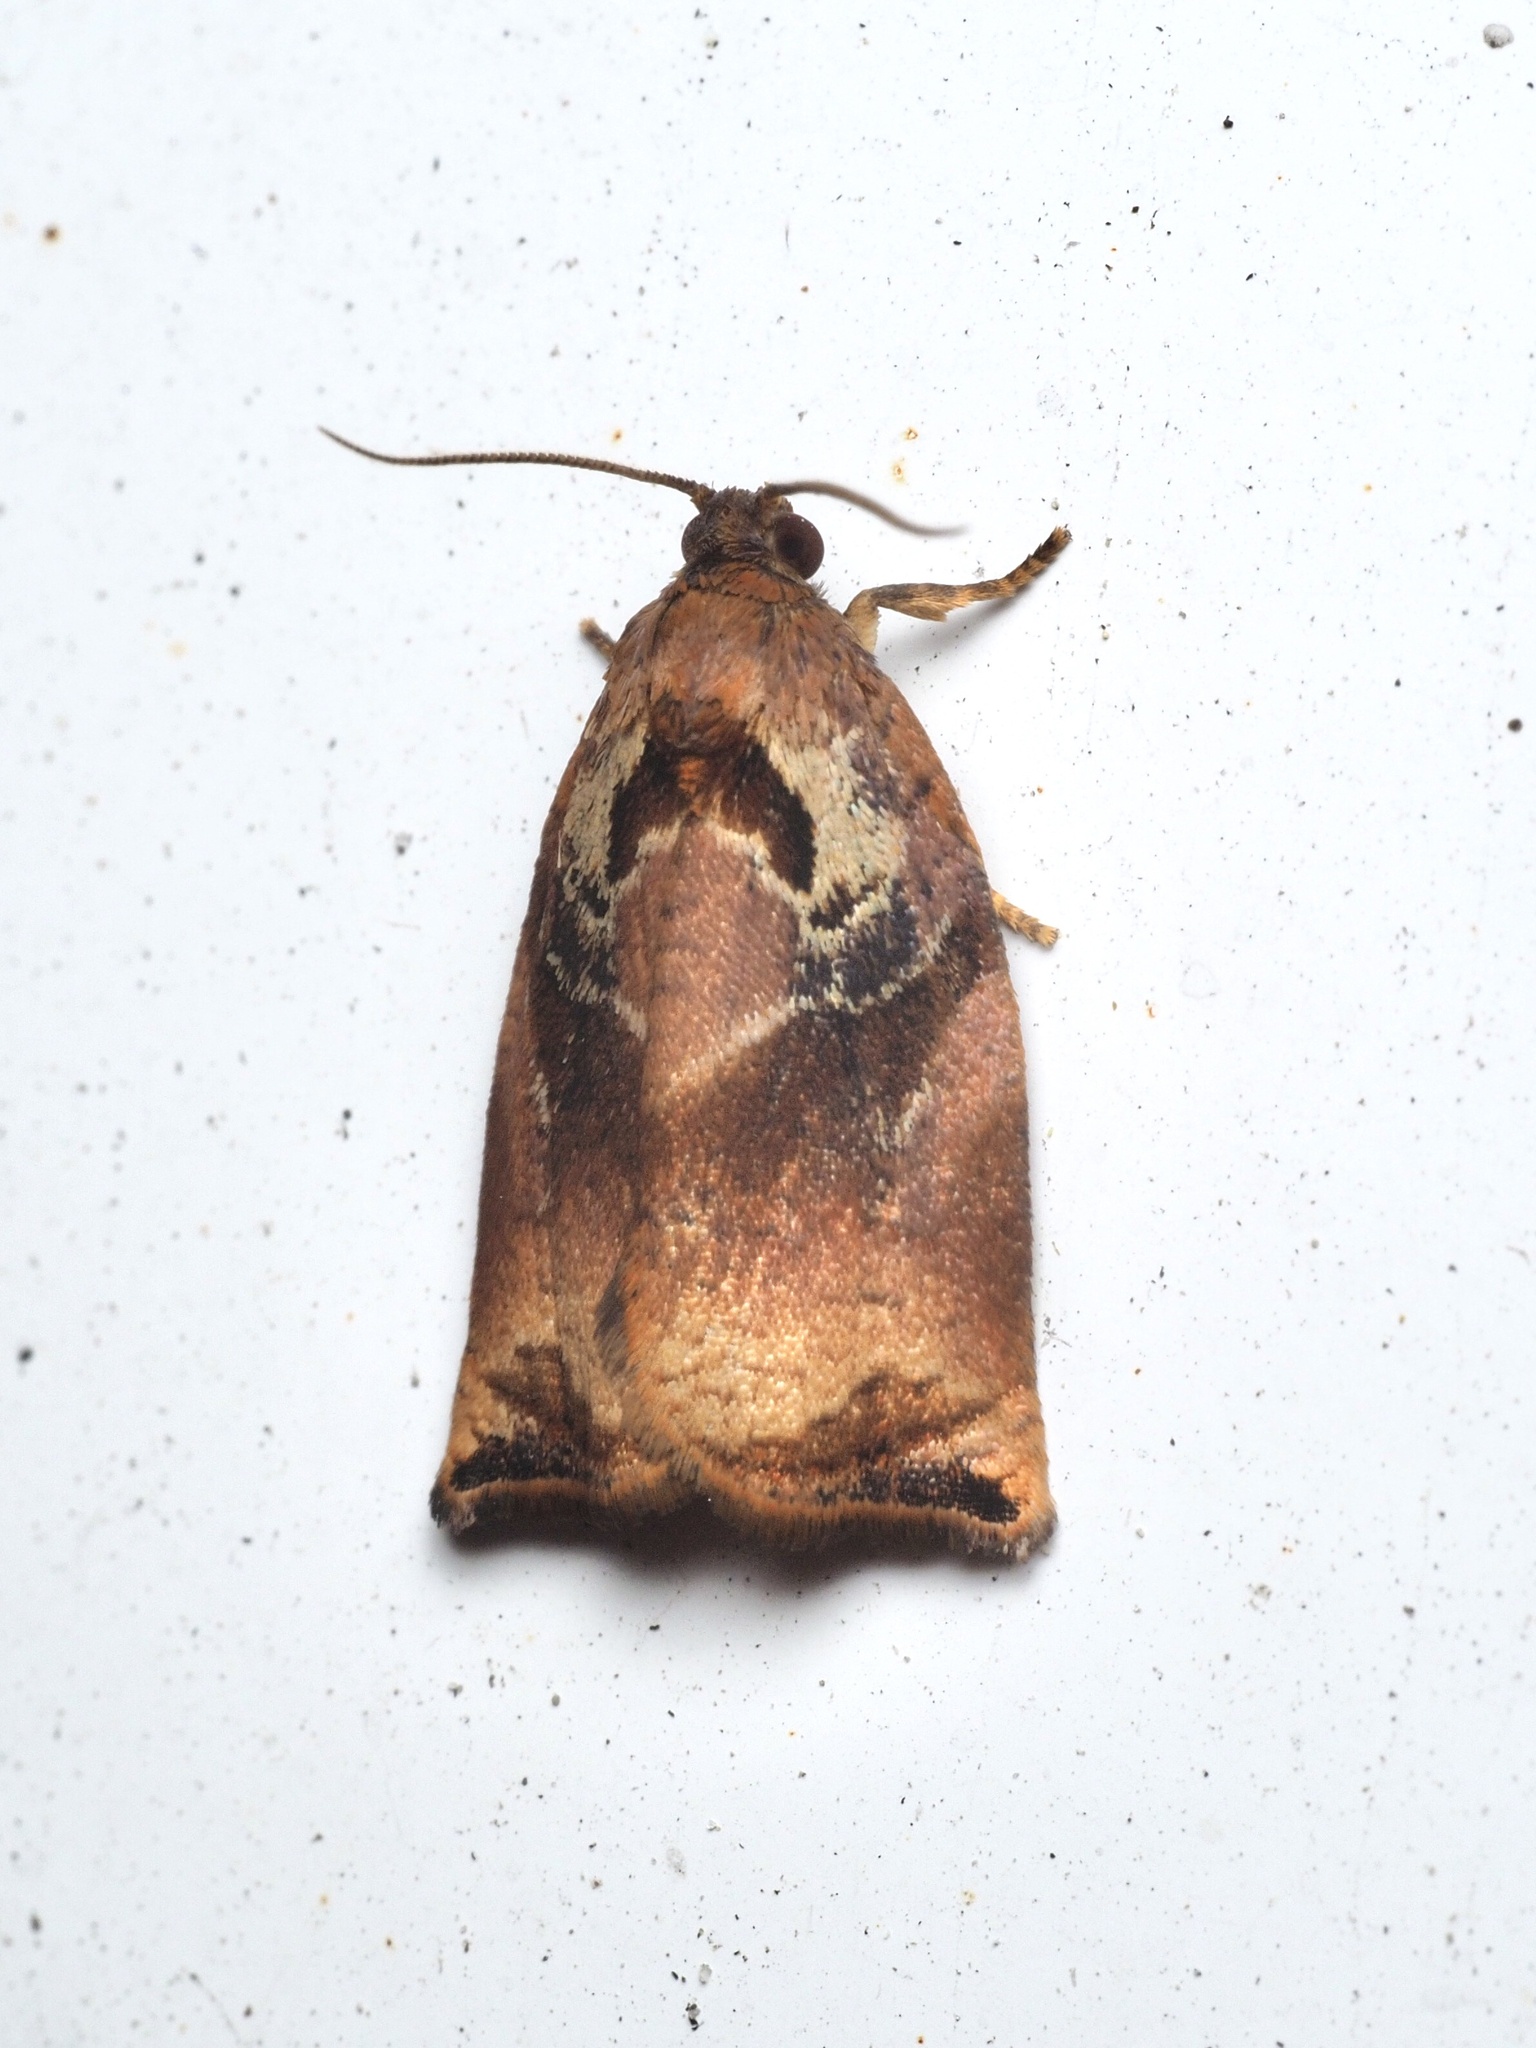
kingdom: Animalia
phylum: Arthropoda
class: Insecta
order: Lepidoptera
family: Tortricidae
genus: Archips
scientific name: Archips podana
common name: Large fruit-tree tortrix
